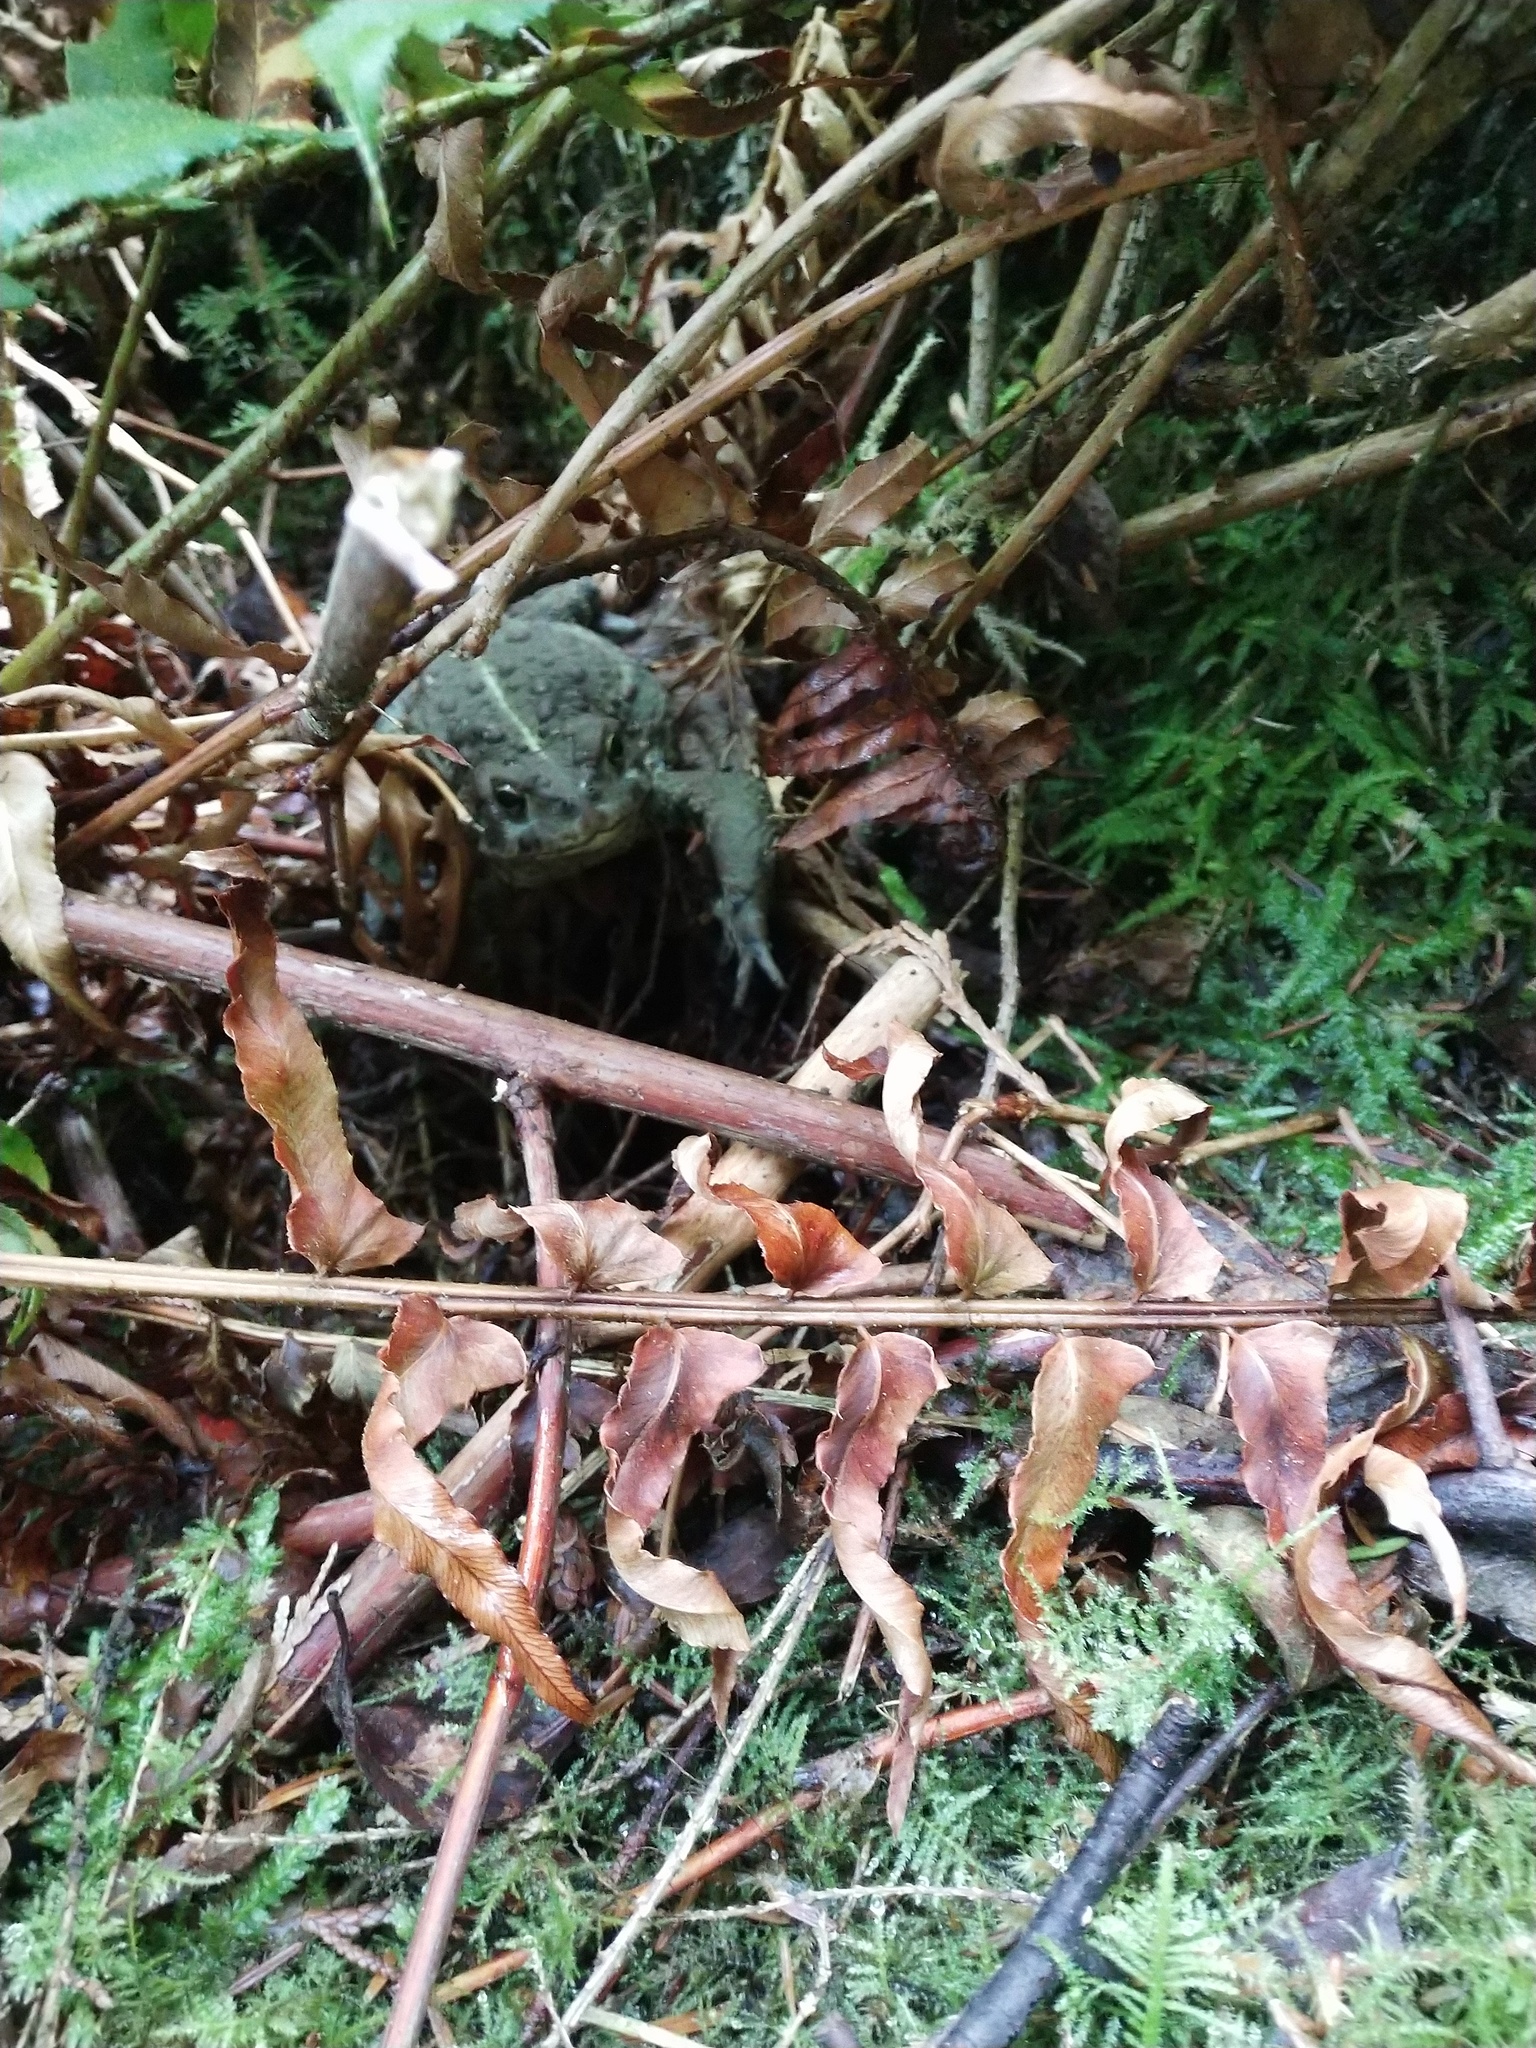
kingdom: Animalia
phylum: Chordata
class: Amphibia
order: Anura
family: Bufonidae
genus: Anaxyrus
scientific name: Anaxyrus boreas
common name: Western toad
